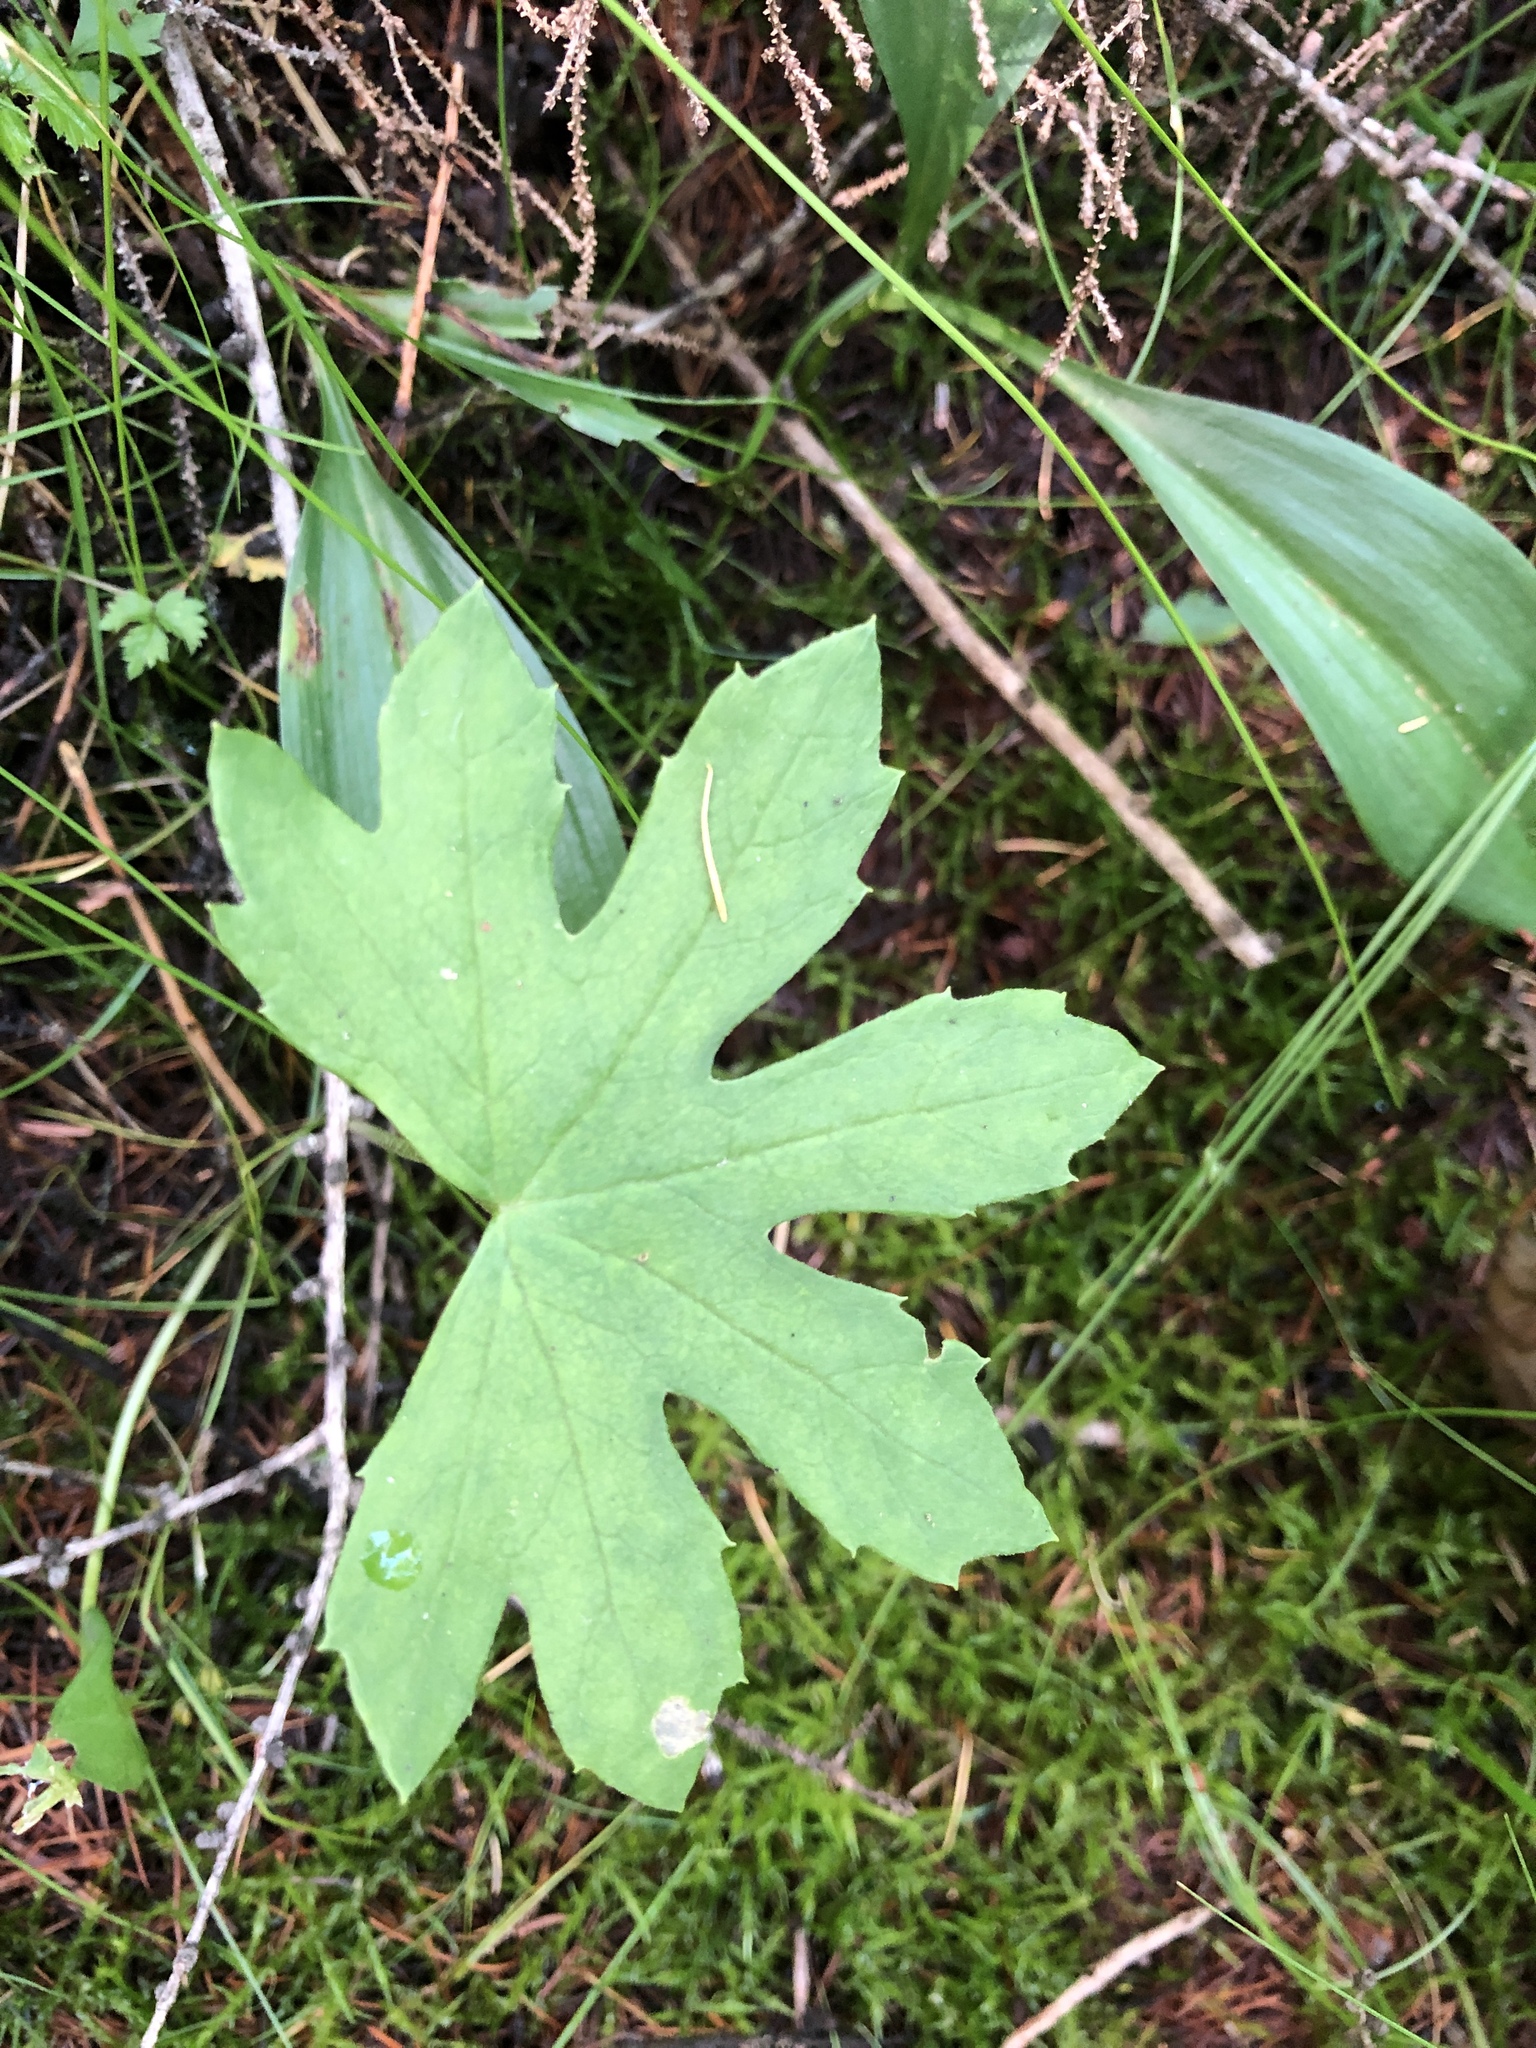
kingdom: Plantae
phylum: Tracheophyta
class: Magnoliopsida
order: Asterales
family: Asteraceae
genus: Petasites
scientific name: Petasites frigidus
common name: Arctic butterbur
